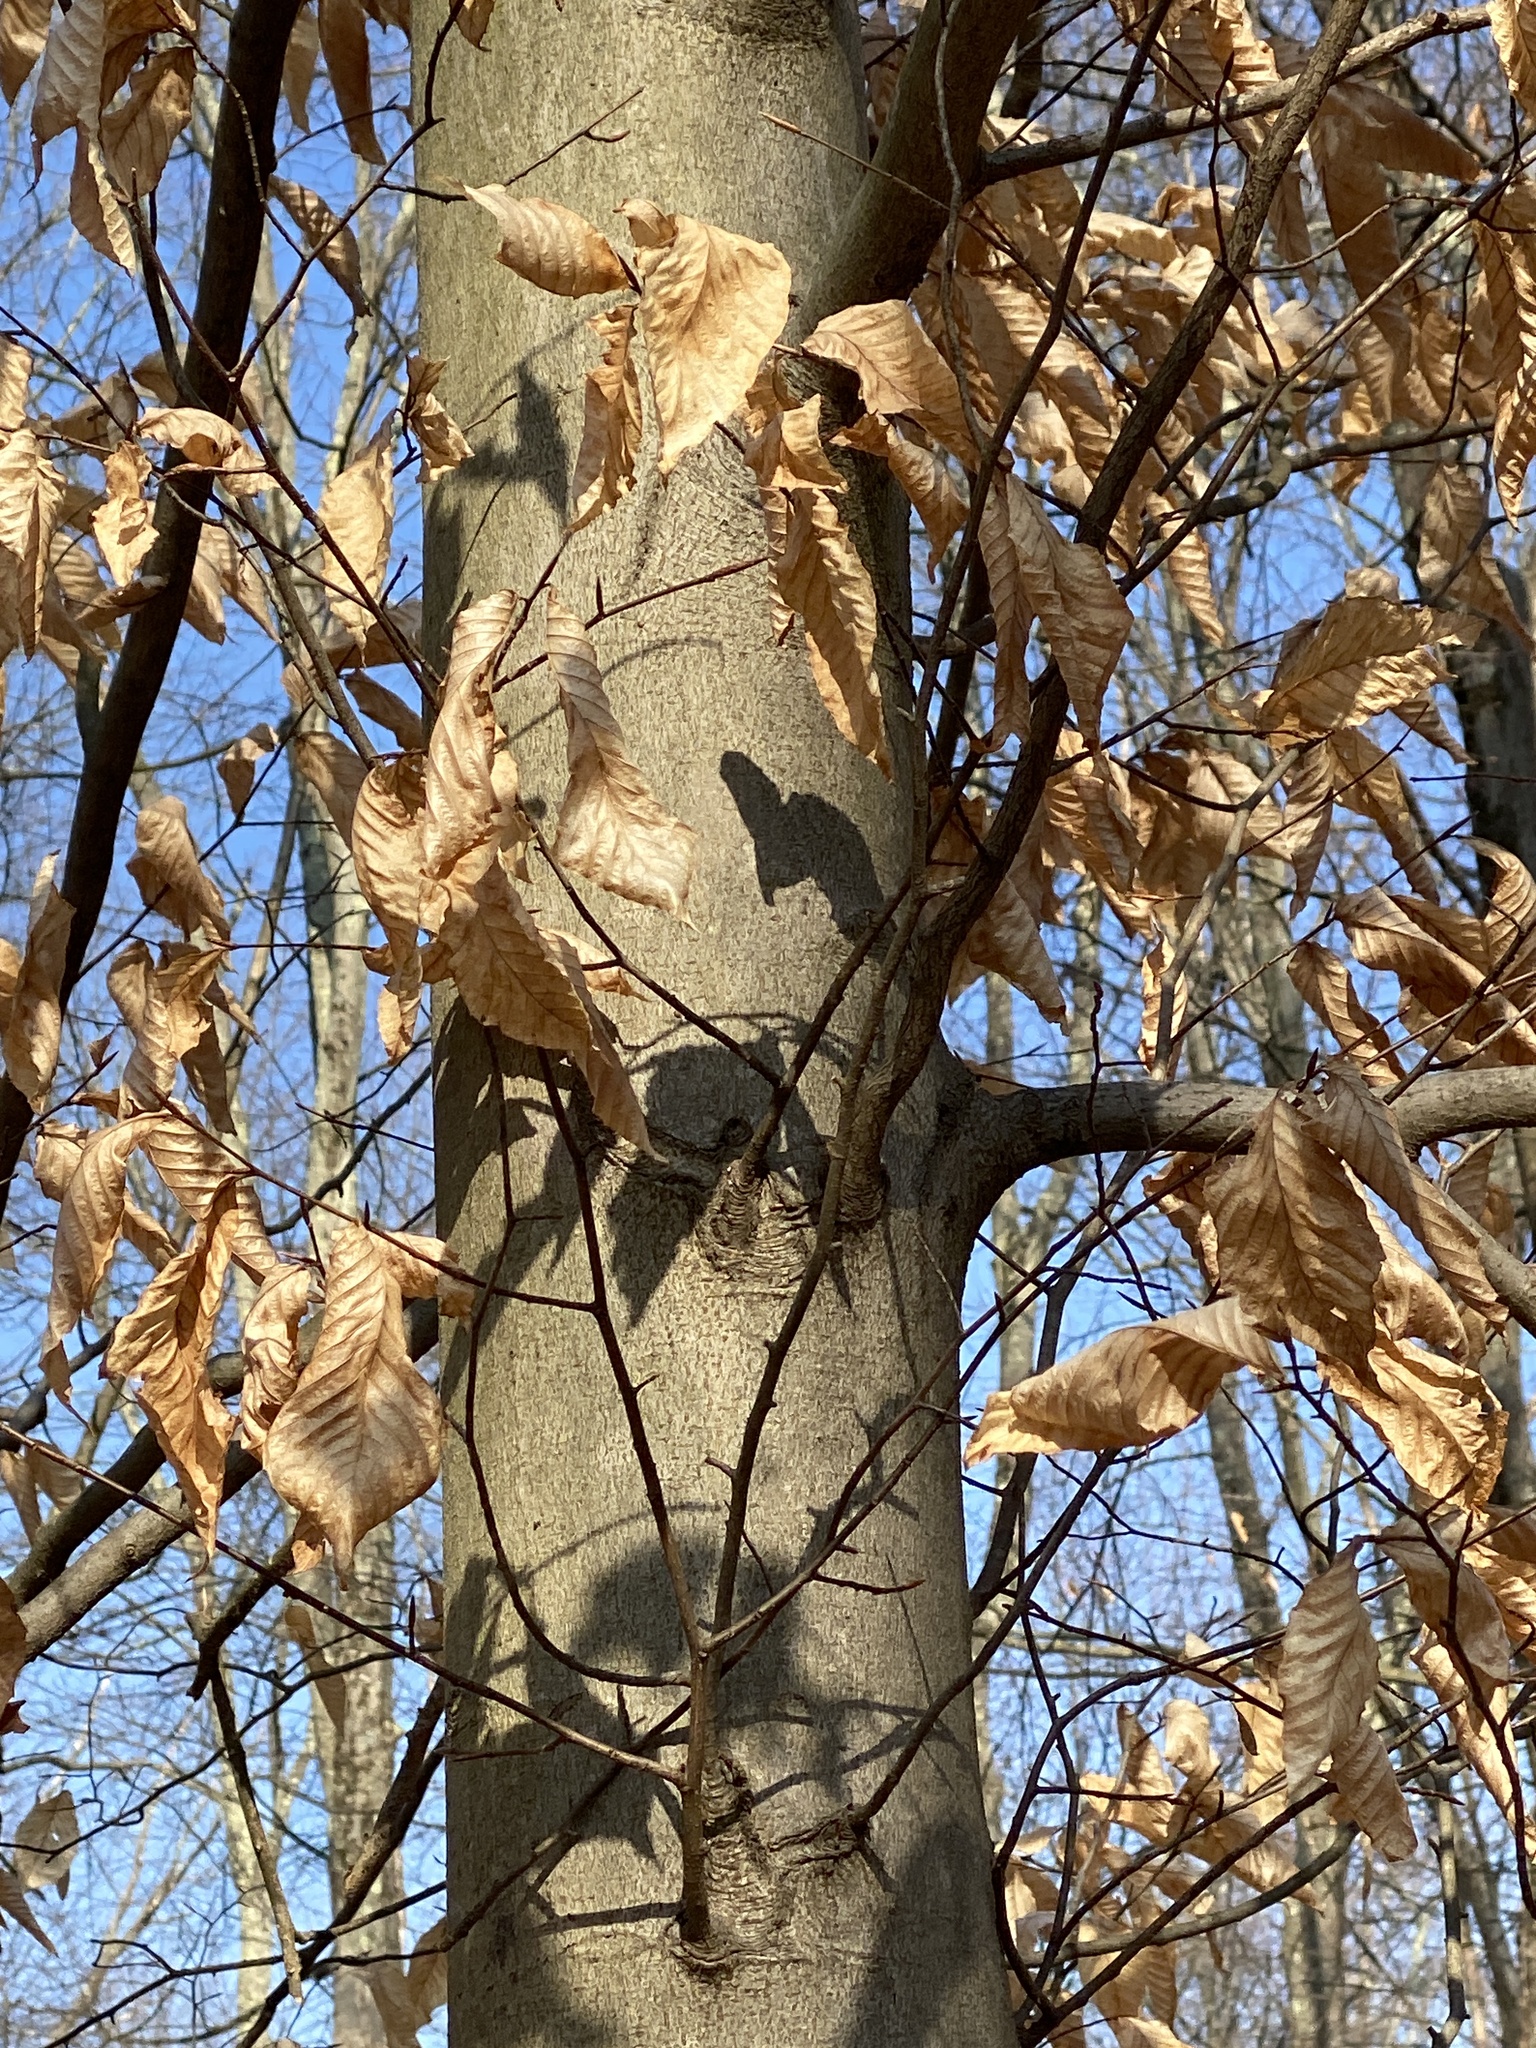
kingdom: Plantae
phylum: Tracheophyta
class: Magnoliopsida
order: Fagales
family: Fagaceae
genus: Fagus
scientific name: Fagus grandifolia
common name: American beech
